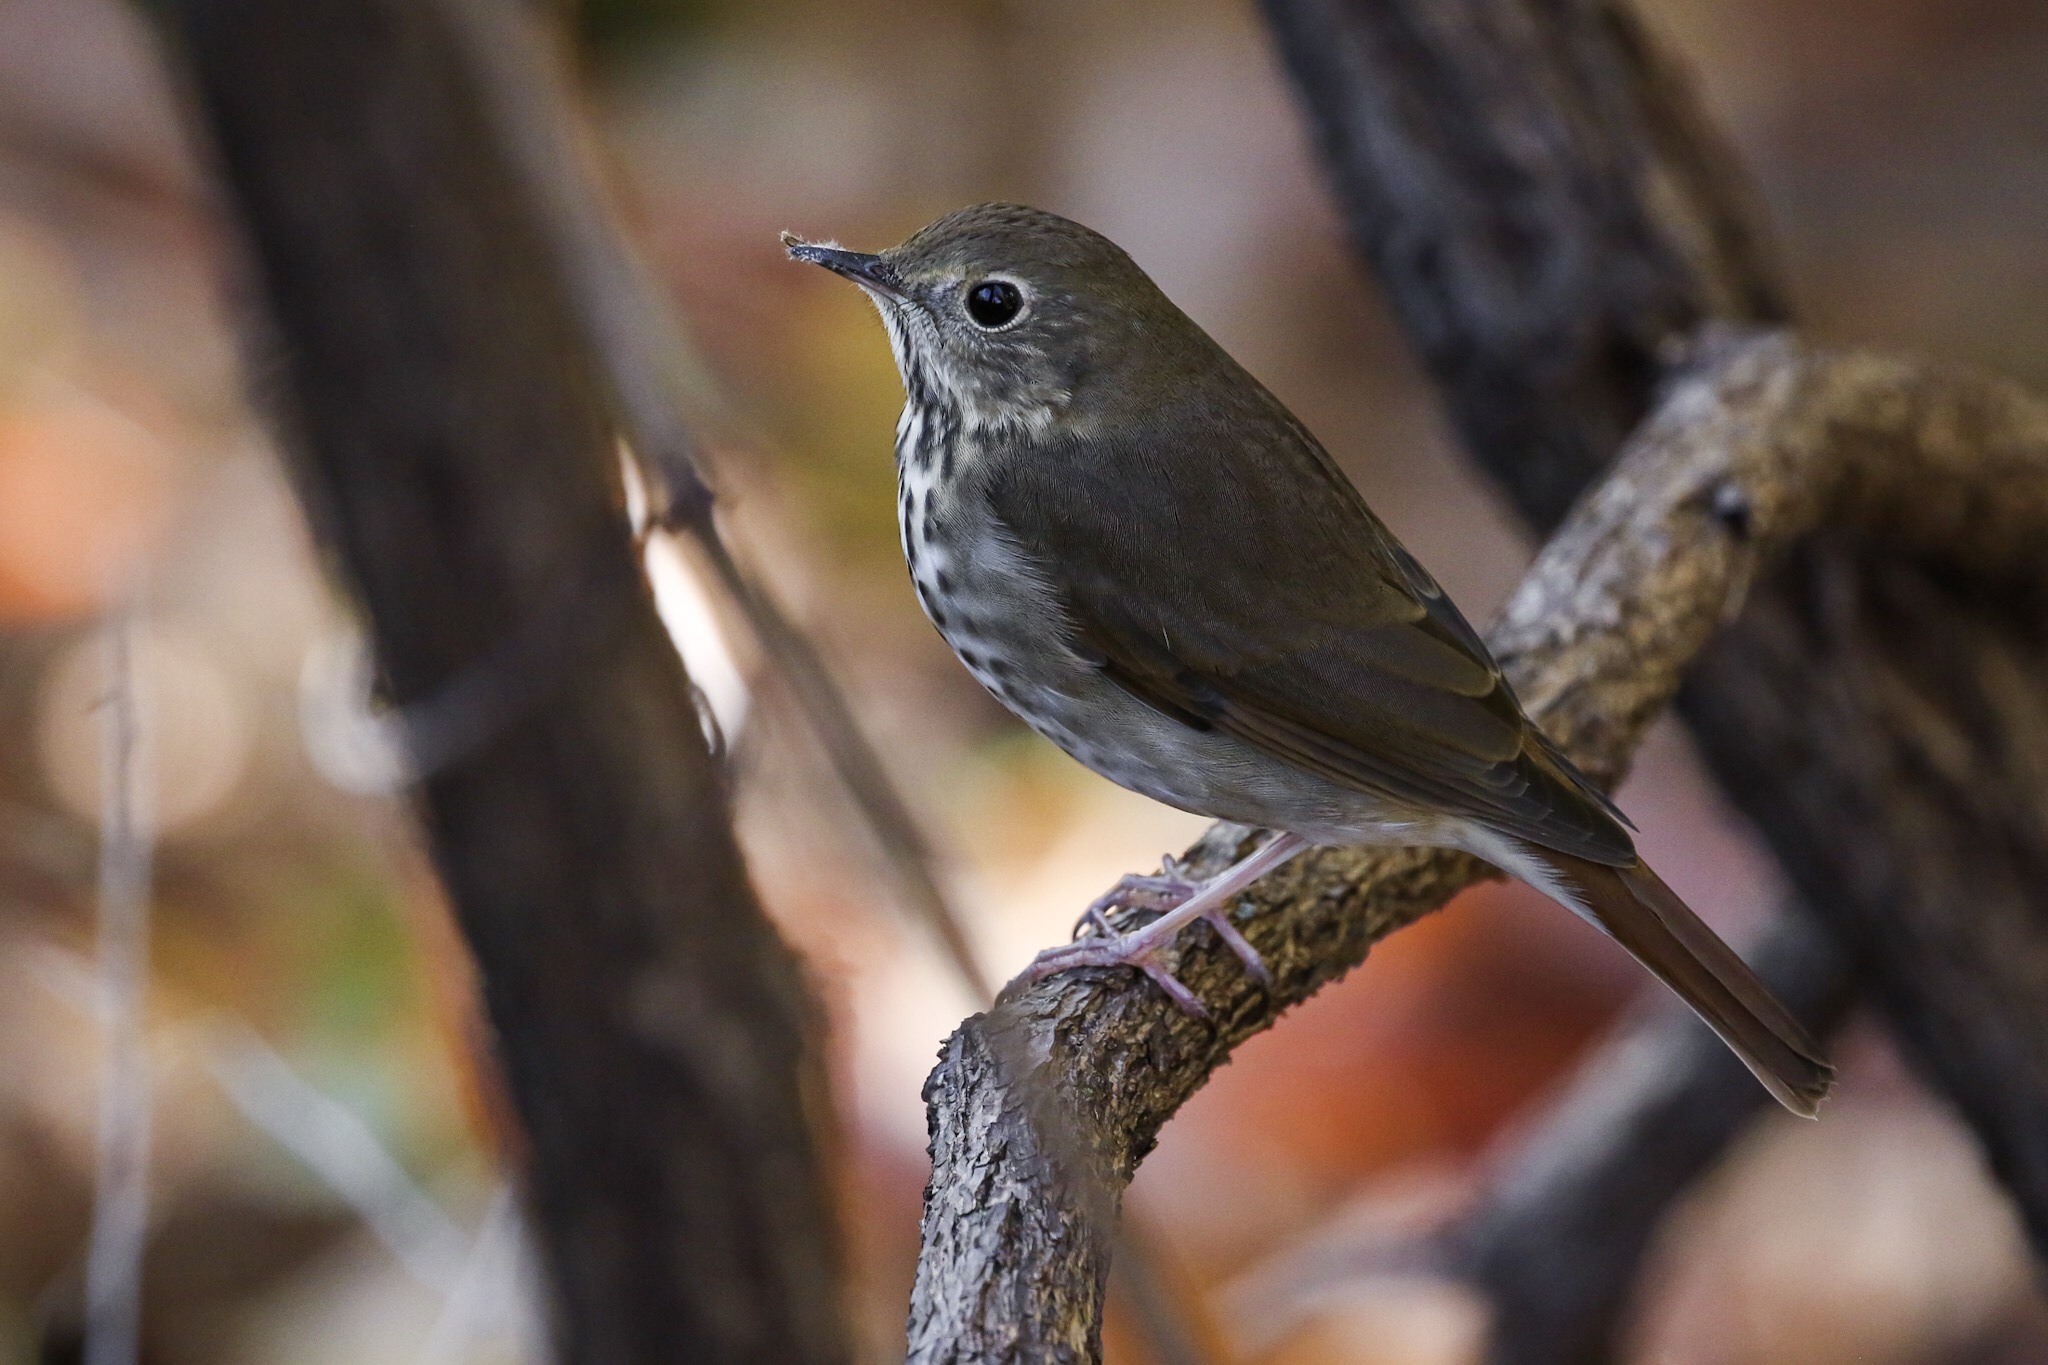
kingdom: Animalia
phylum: Chordata
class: Aves
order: Passeriformes
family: Turdidae
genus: Catharus
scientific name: Catharus guttatus
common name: Hermit thrush
